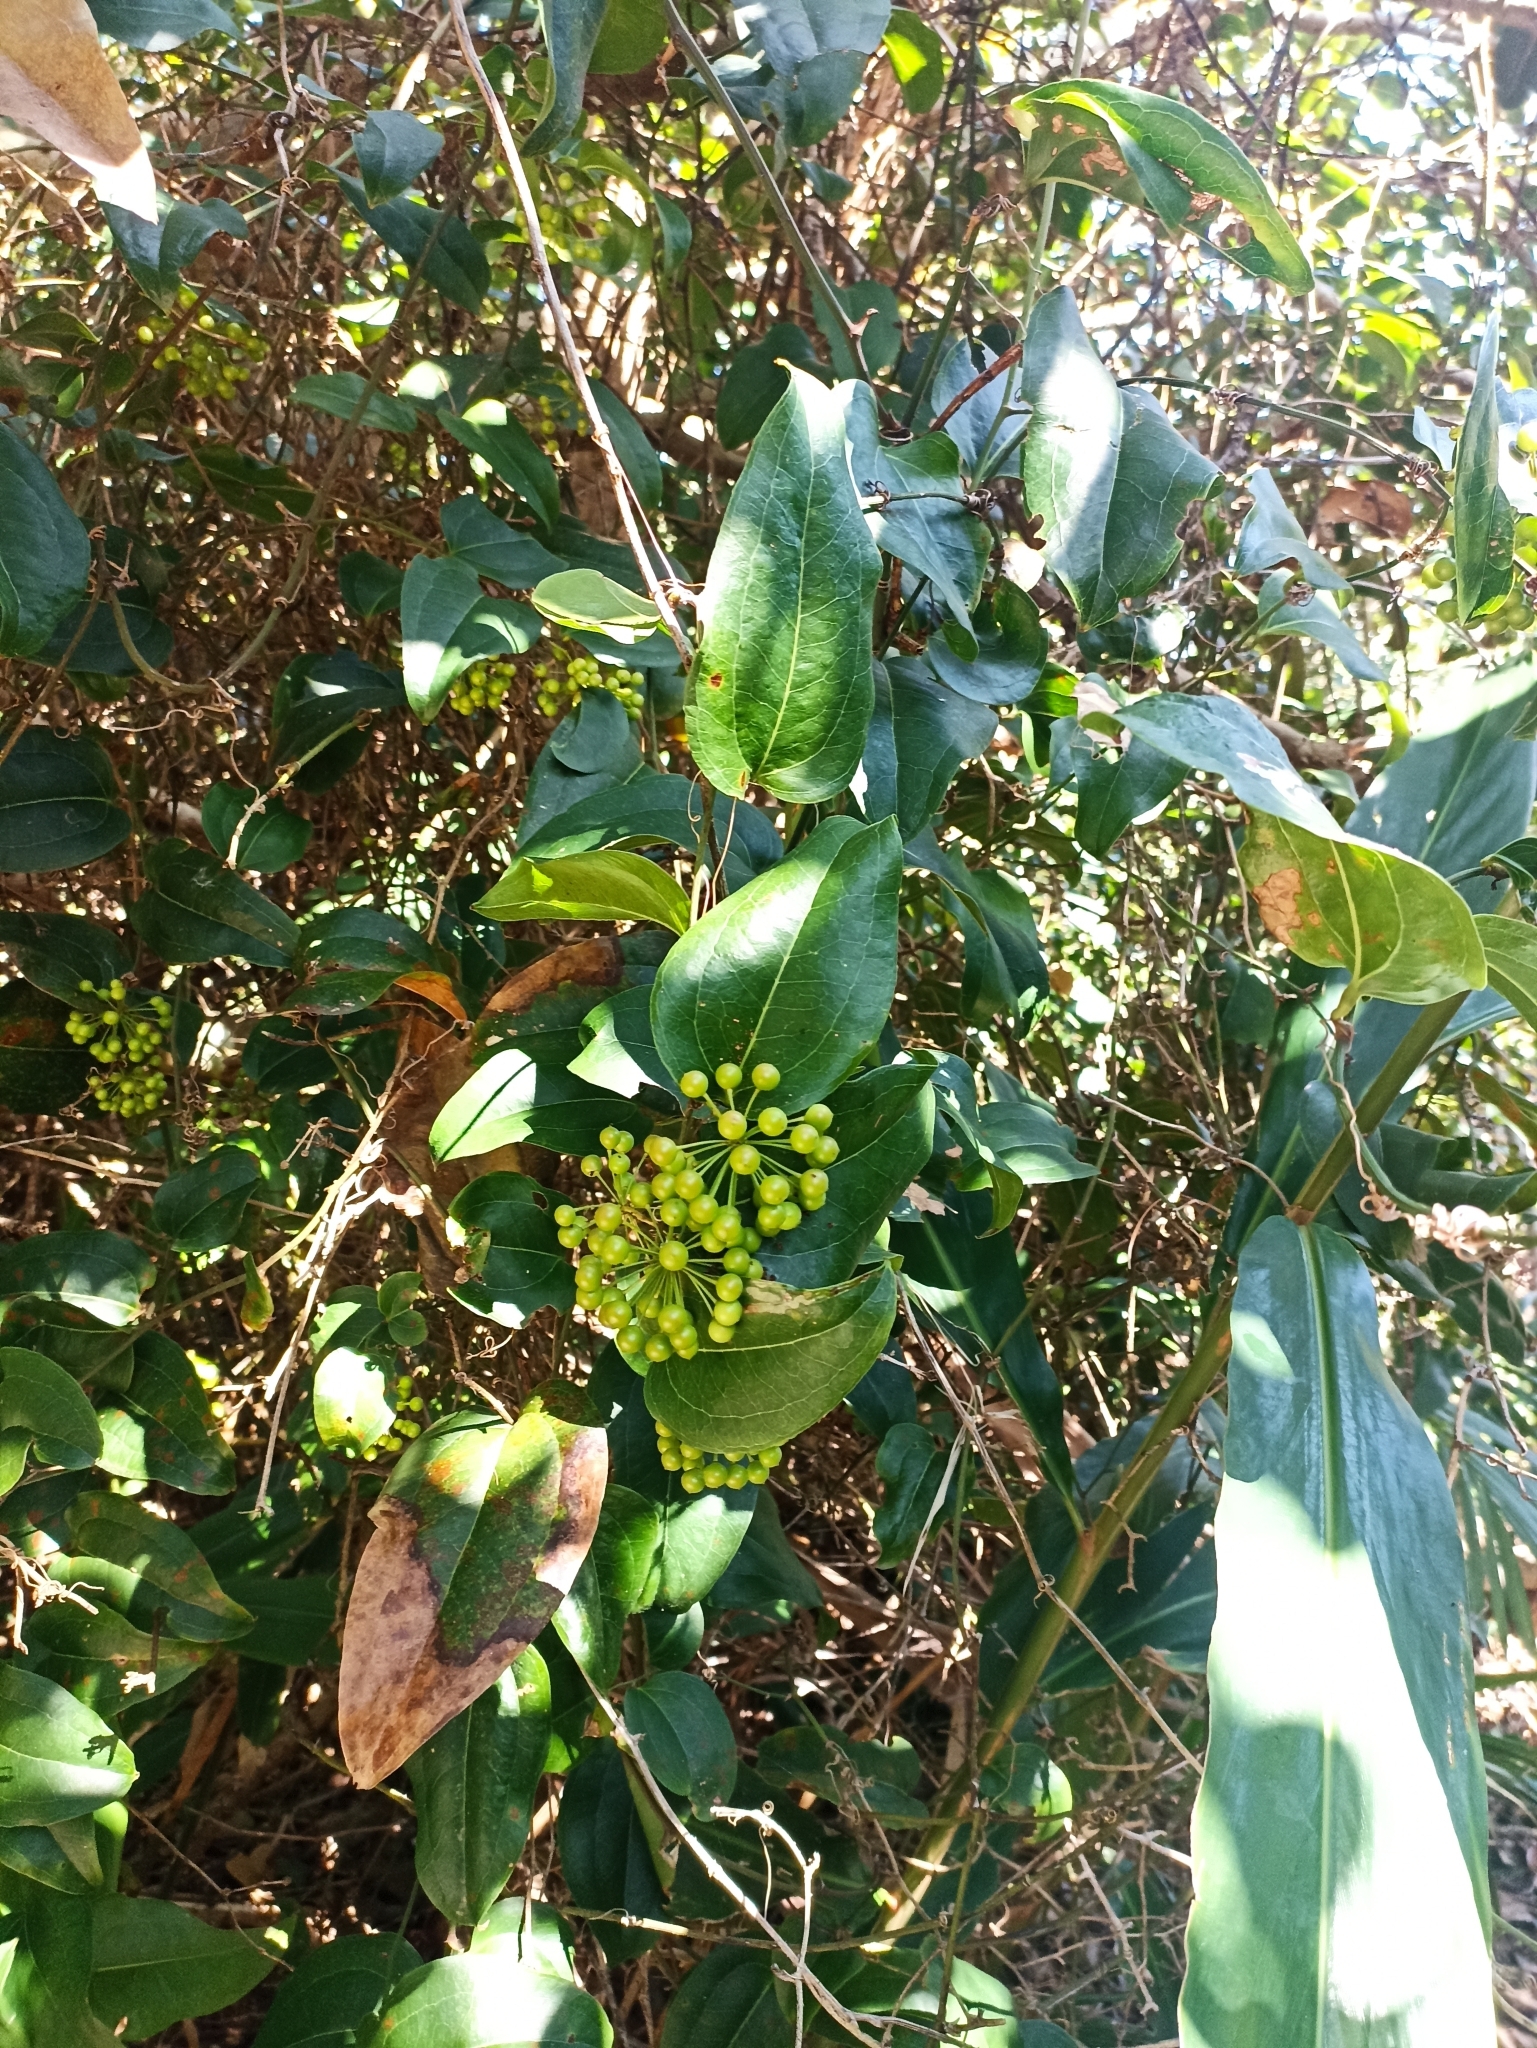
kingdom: Plantae
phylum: Tracheophyta
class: Liliopsida
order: Liliales
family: Smilacaceae
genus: Smilax
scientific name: Smilax australis
